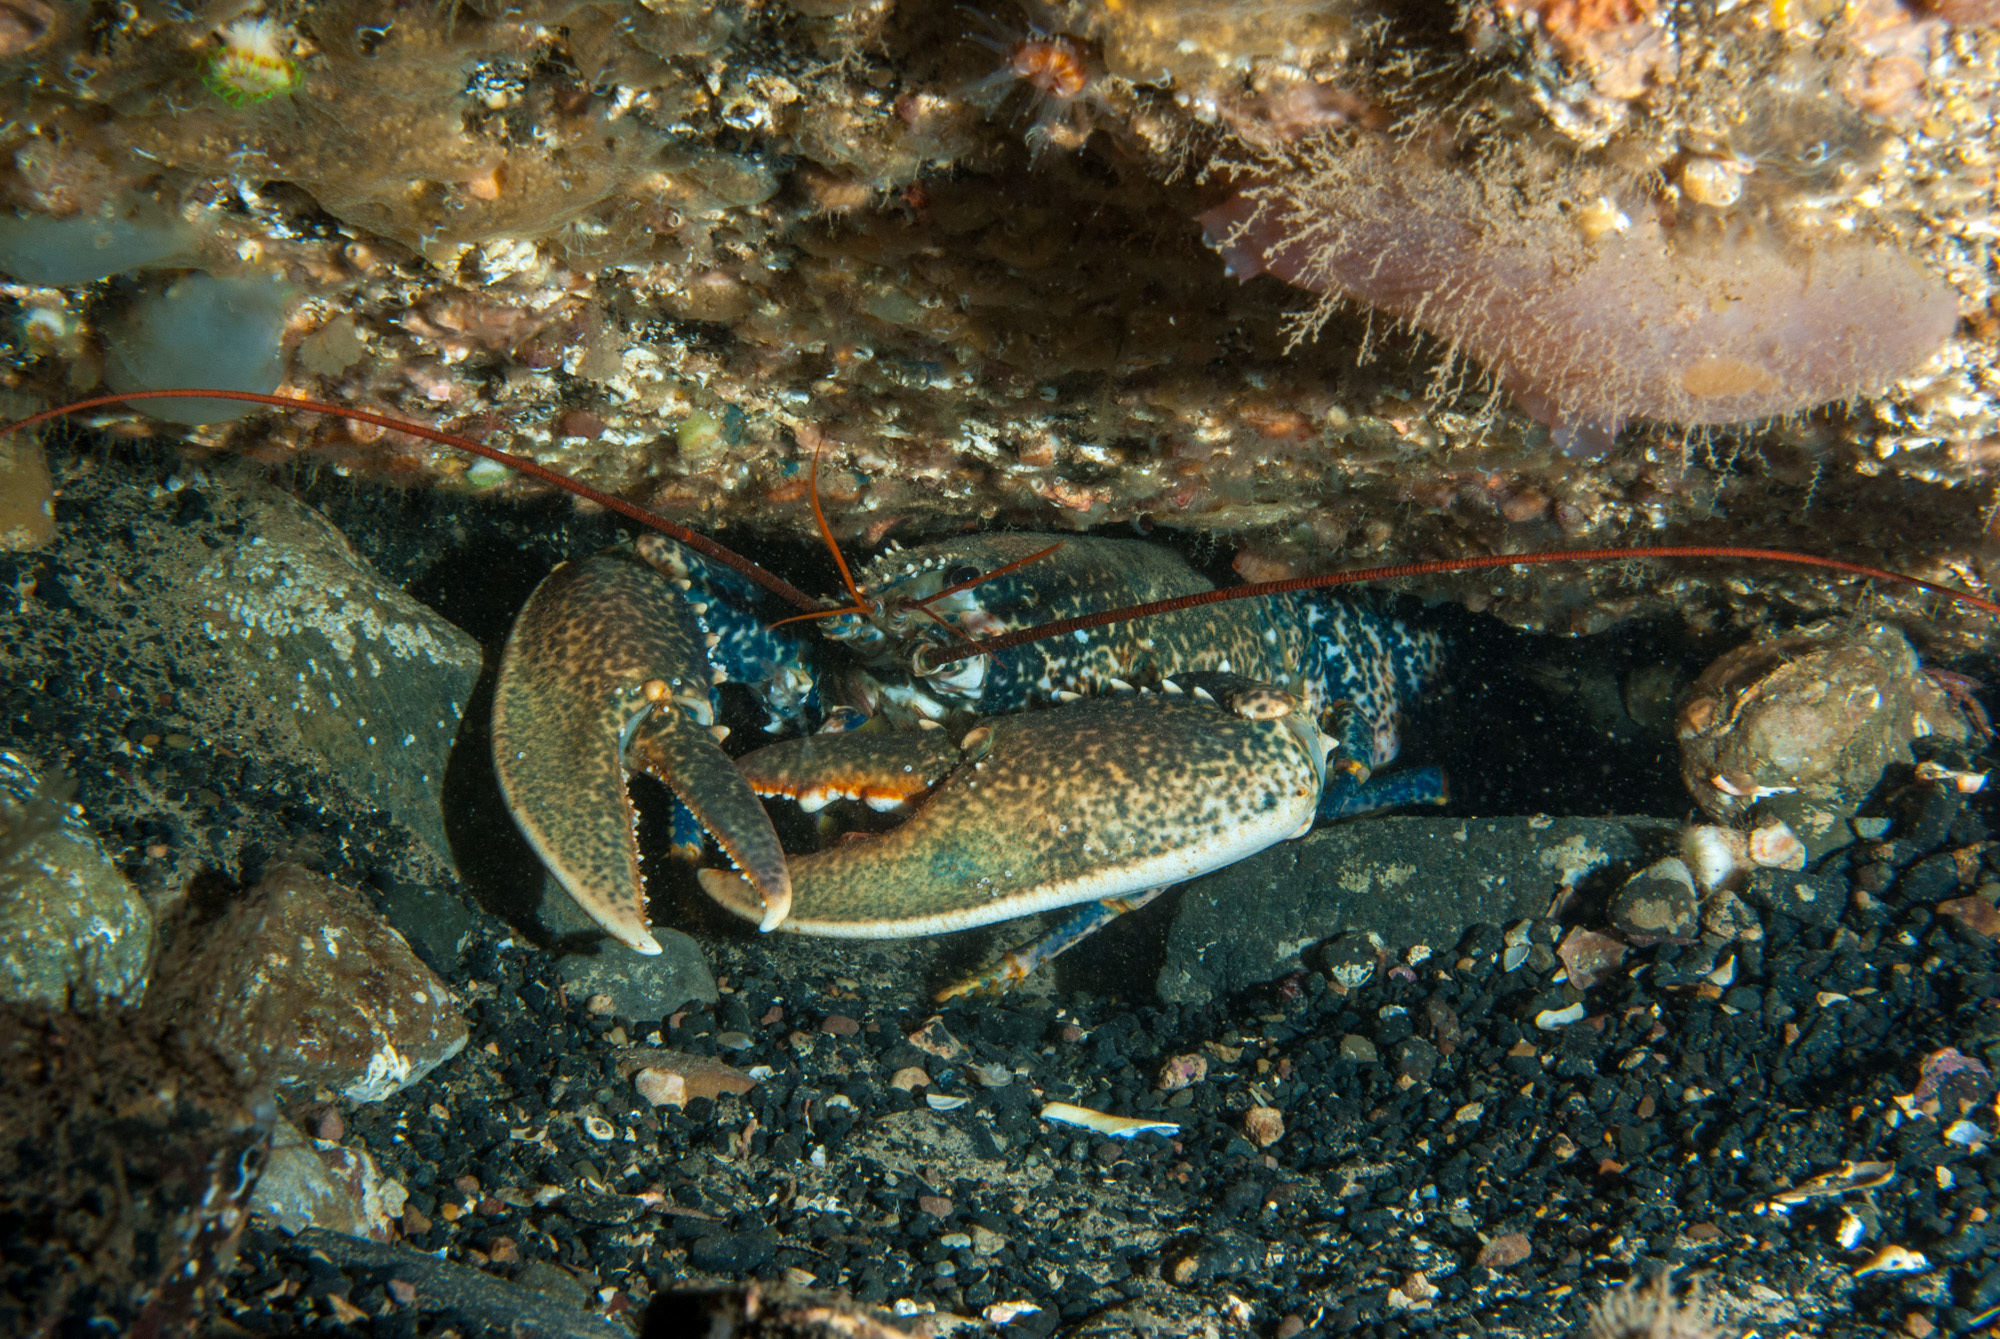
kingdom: Animalia
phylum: Arthropoda
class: Malacostraca
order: Decapoda
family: Nephropidae
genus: Homarus
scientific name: Homarus gammarus
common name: European lobster
